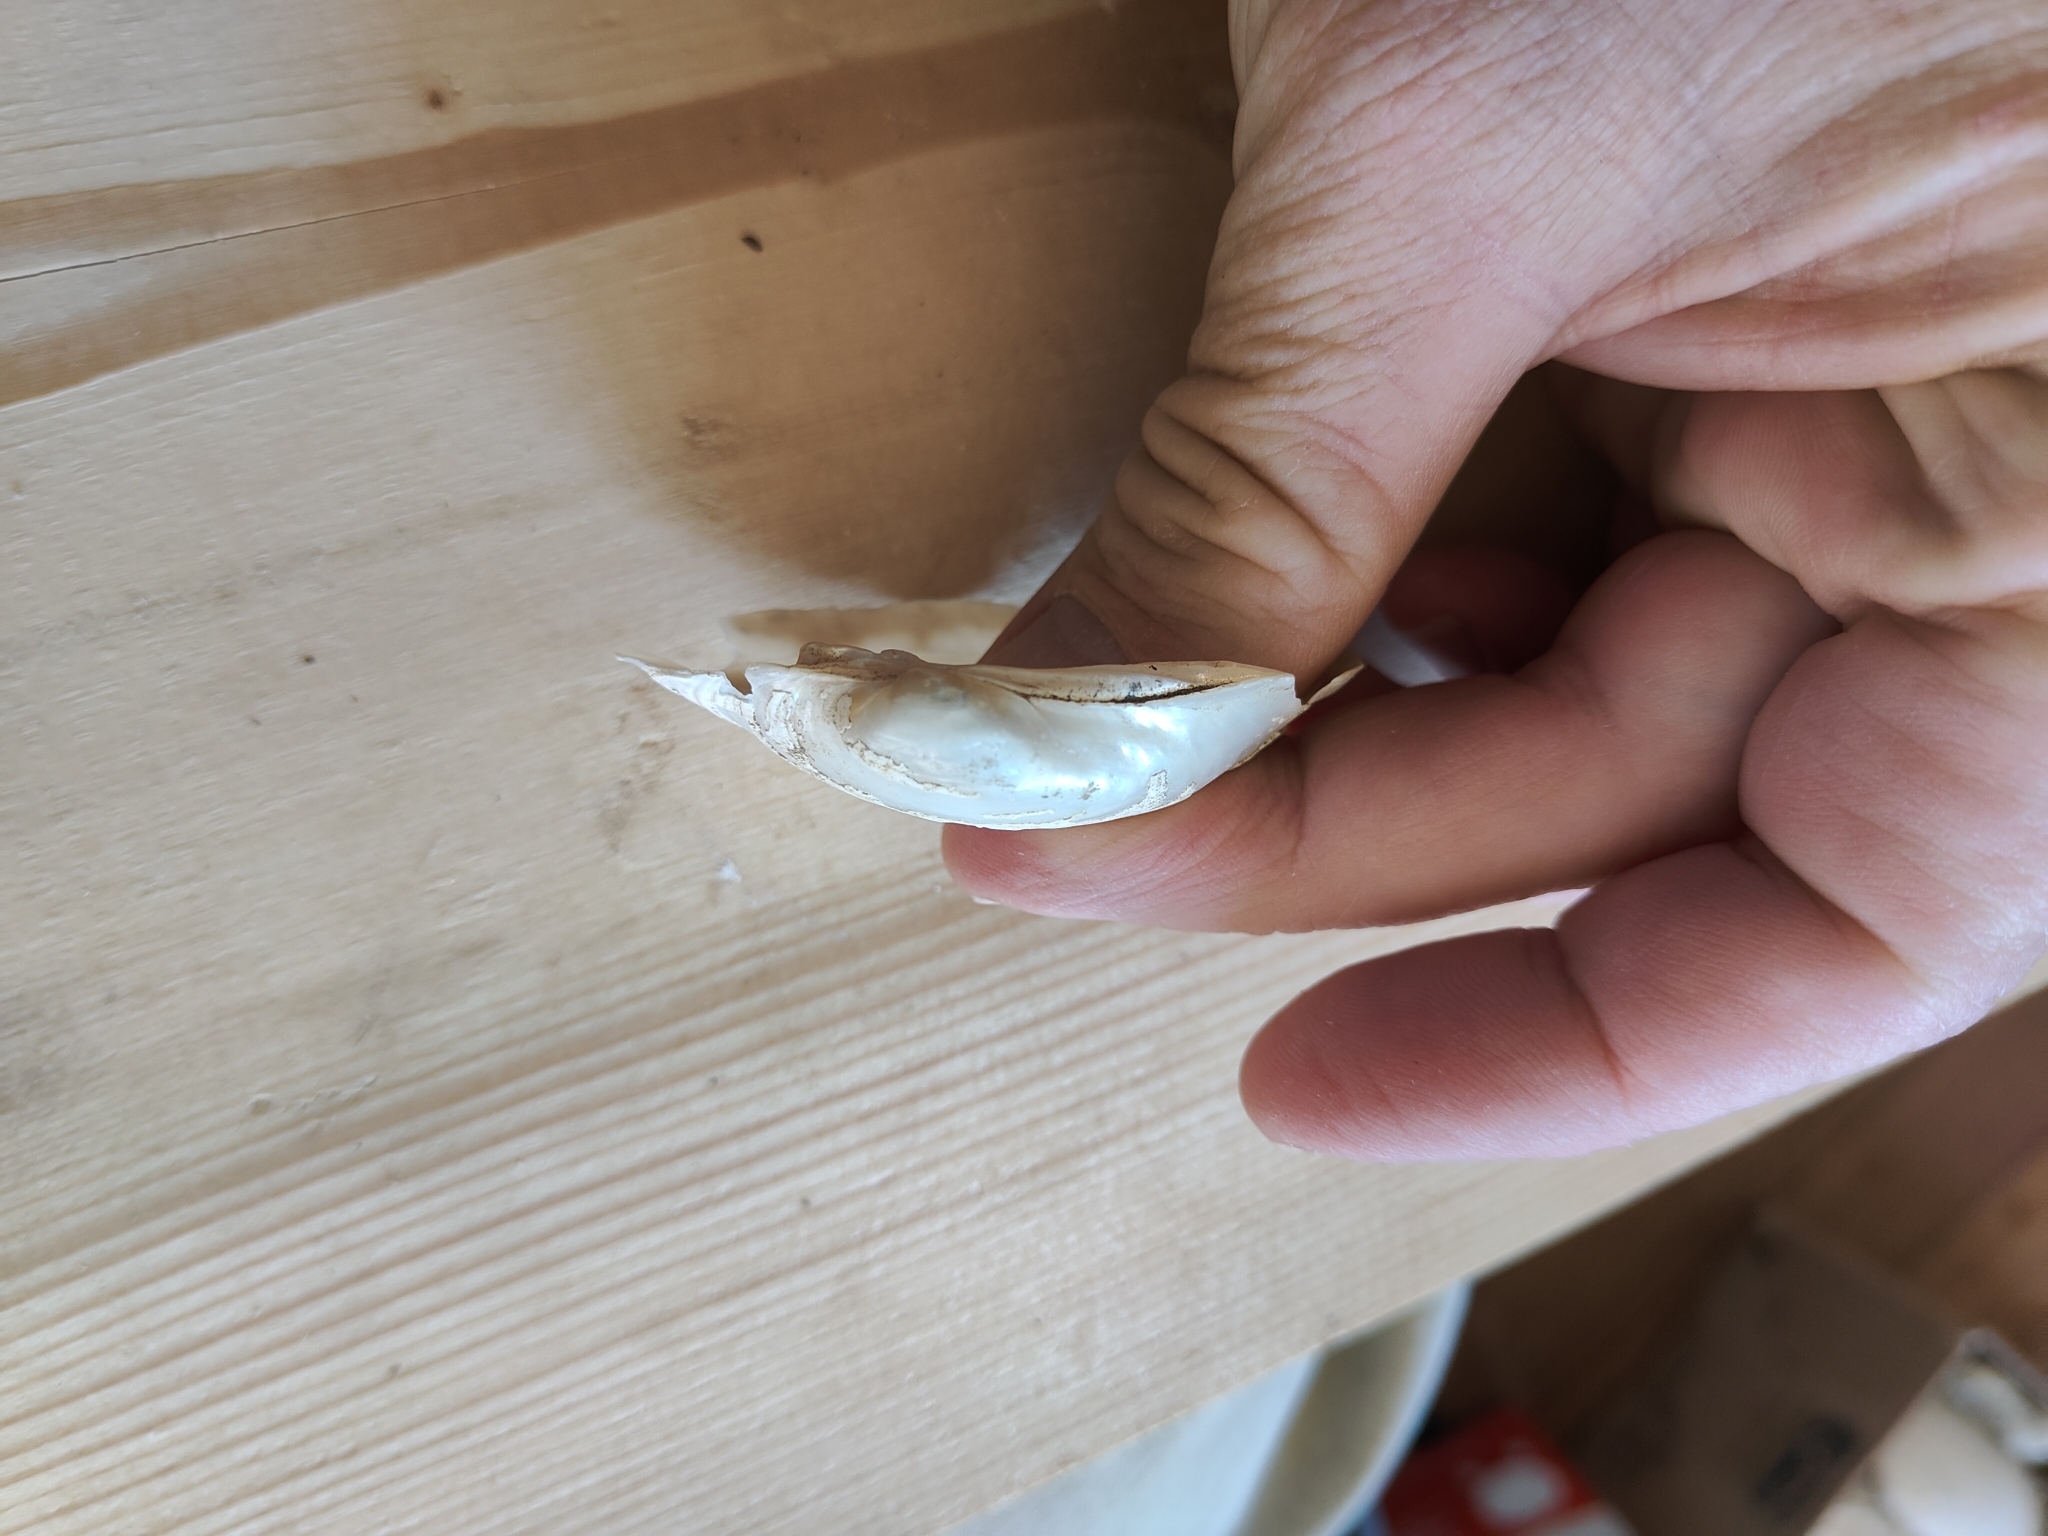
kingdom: Animalia
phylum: Mollusca
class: Bivalvia
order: Unionida
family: Unionidae
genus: Lampsilis
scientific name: Lampsilis cardium
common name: Plain pocketbook
